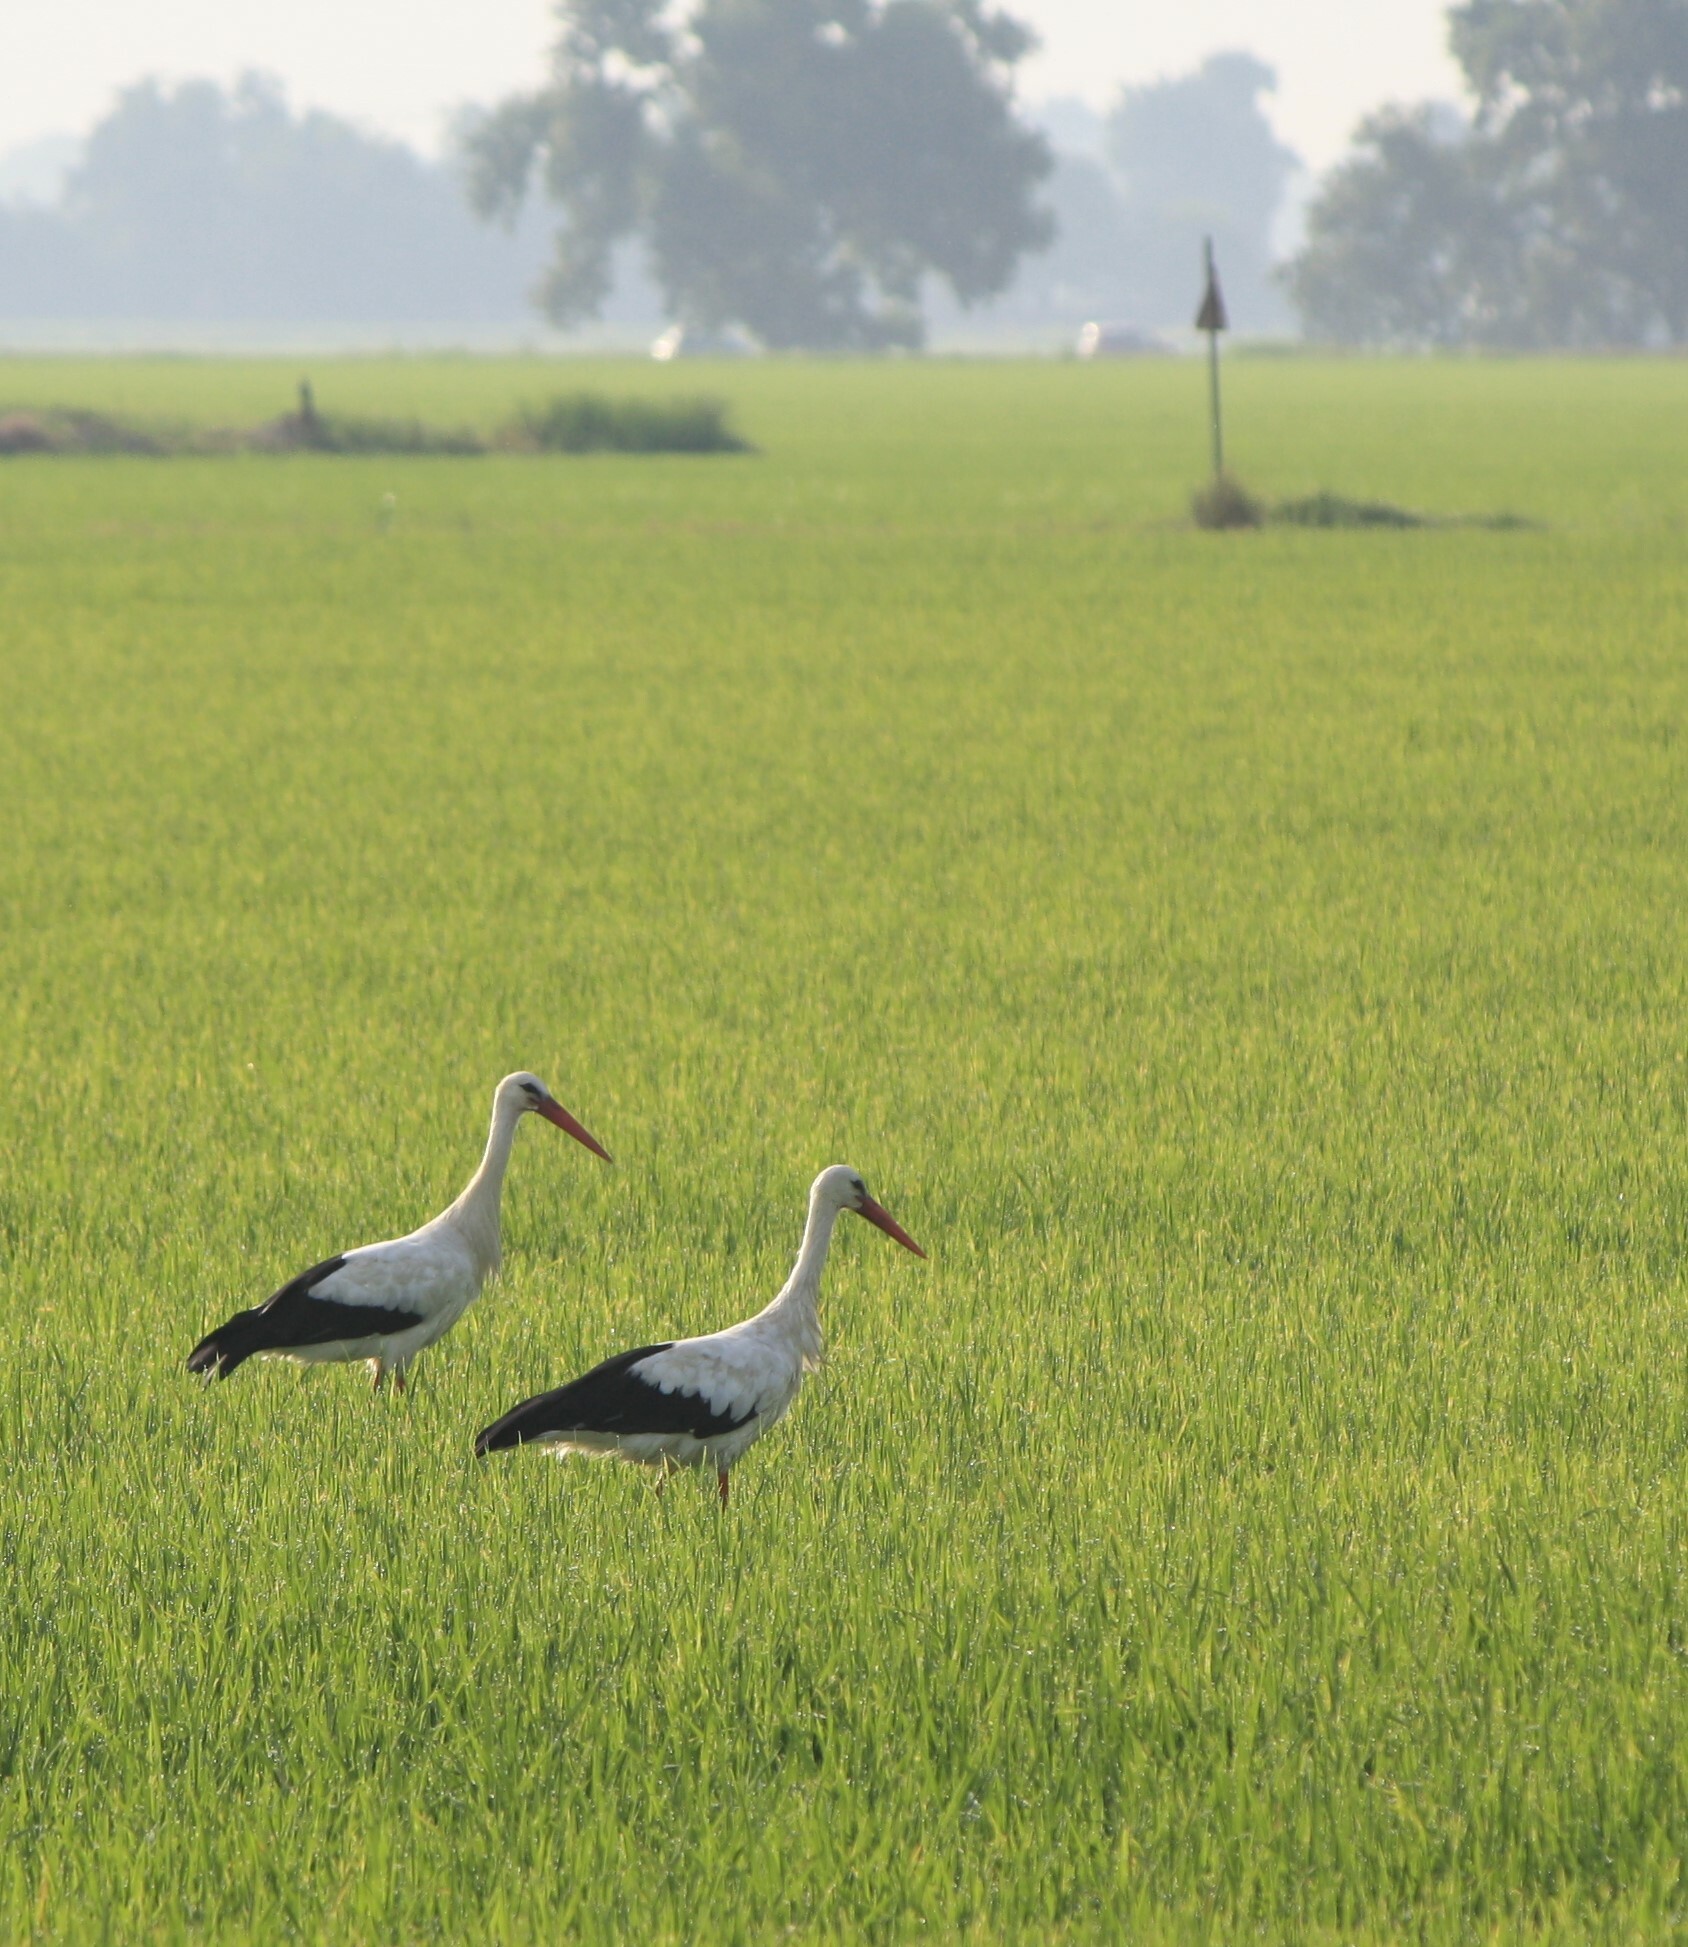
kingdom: Animalia
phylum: Chordata
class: Aves
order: Ciconiiformes
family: Ciconiidae
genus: Ciconia
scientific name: Ciconia ciconia
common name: White stork
